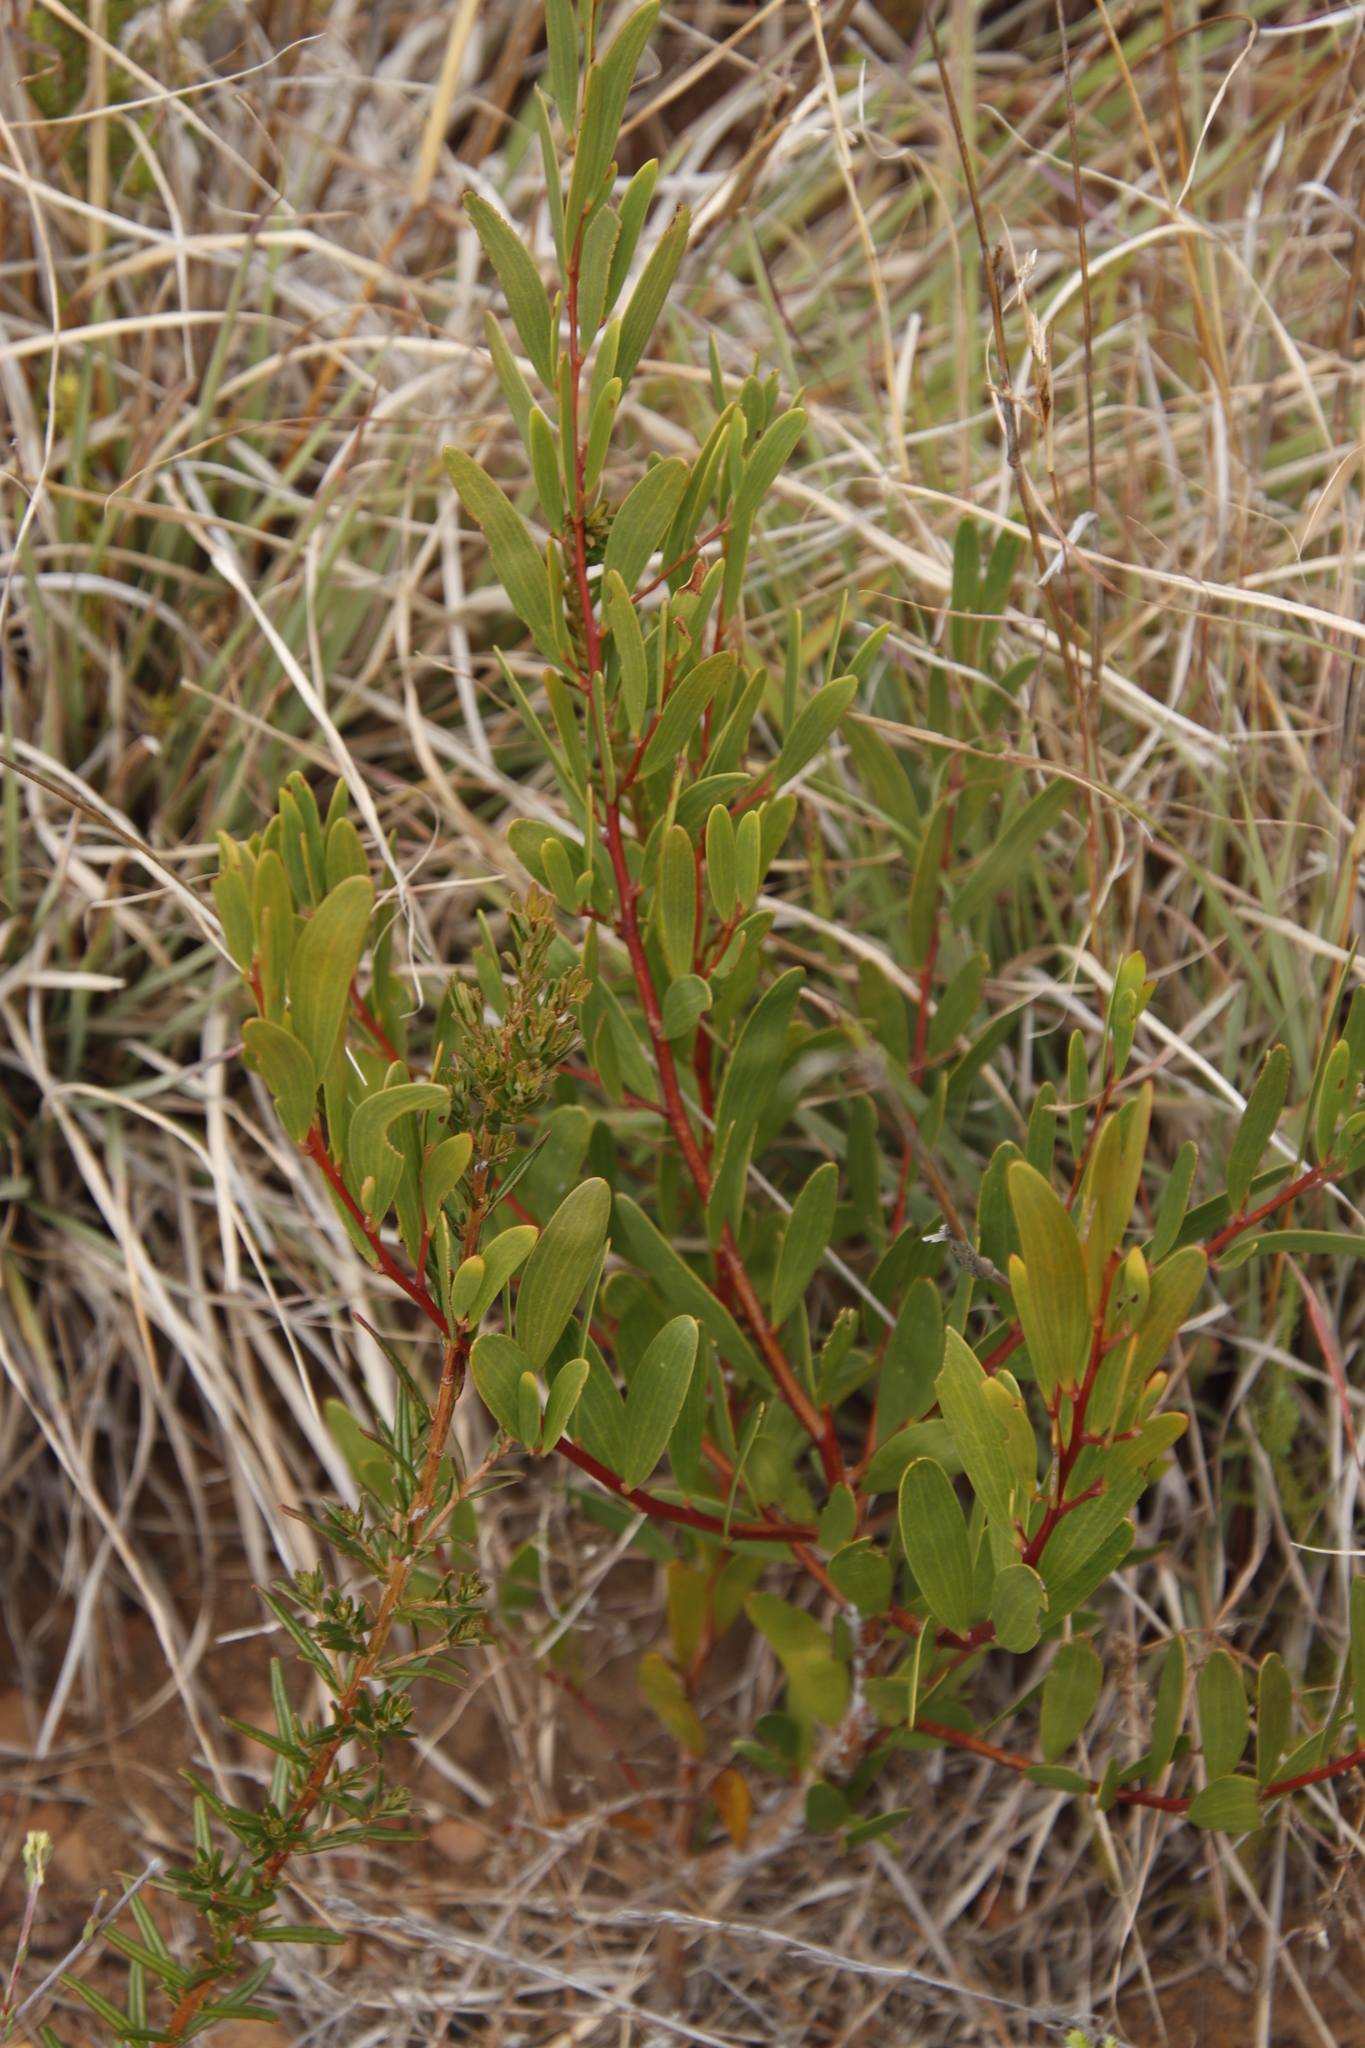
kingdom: Plantae
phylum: Tracheophyta
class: Magnoliopsida
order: Fabales
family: Fabaceae
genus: Acacia
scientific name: Acacia cyclops
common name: Coastal wattle
